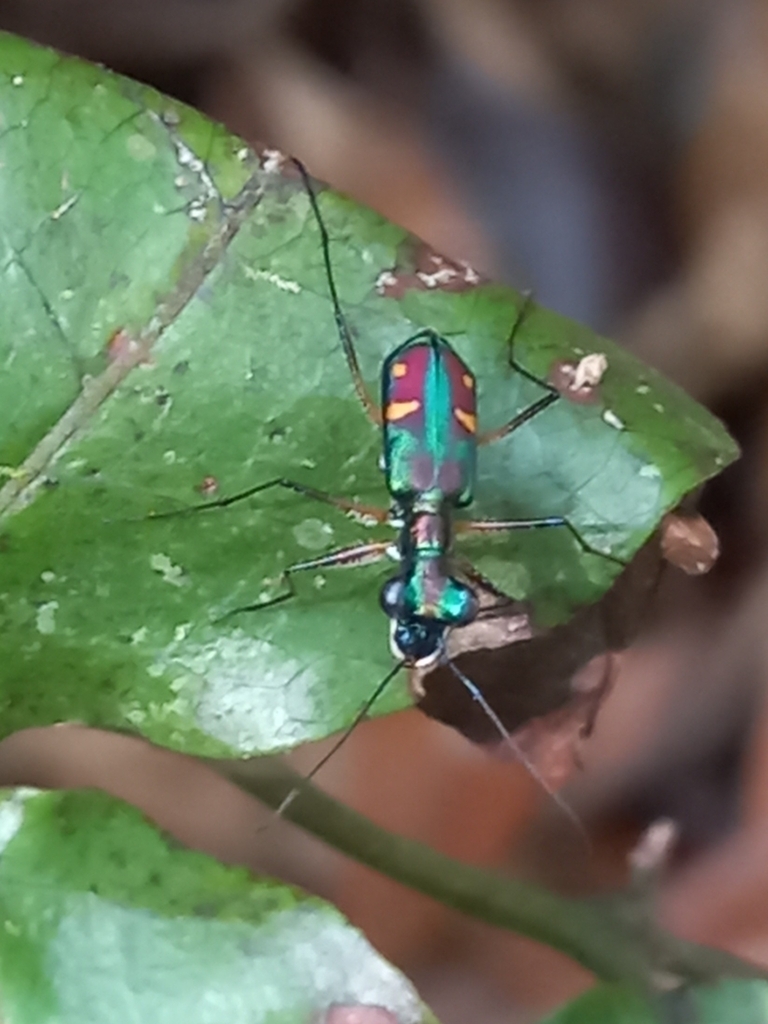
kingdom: Animalia
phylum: Arthropoda
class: Insecta
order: Coleoptera
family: Carabidae
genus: Jansenia
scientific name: Jansenia venus
